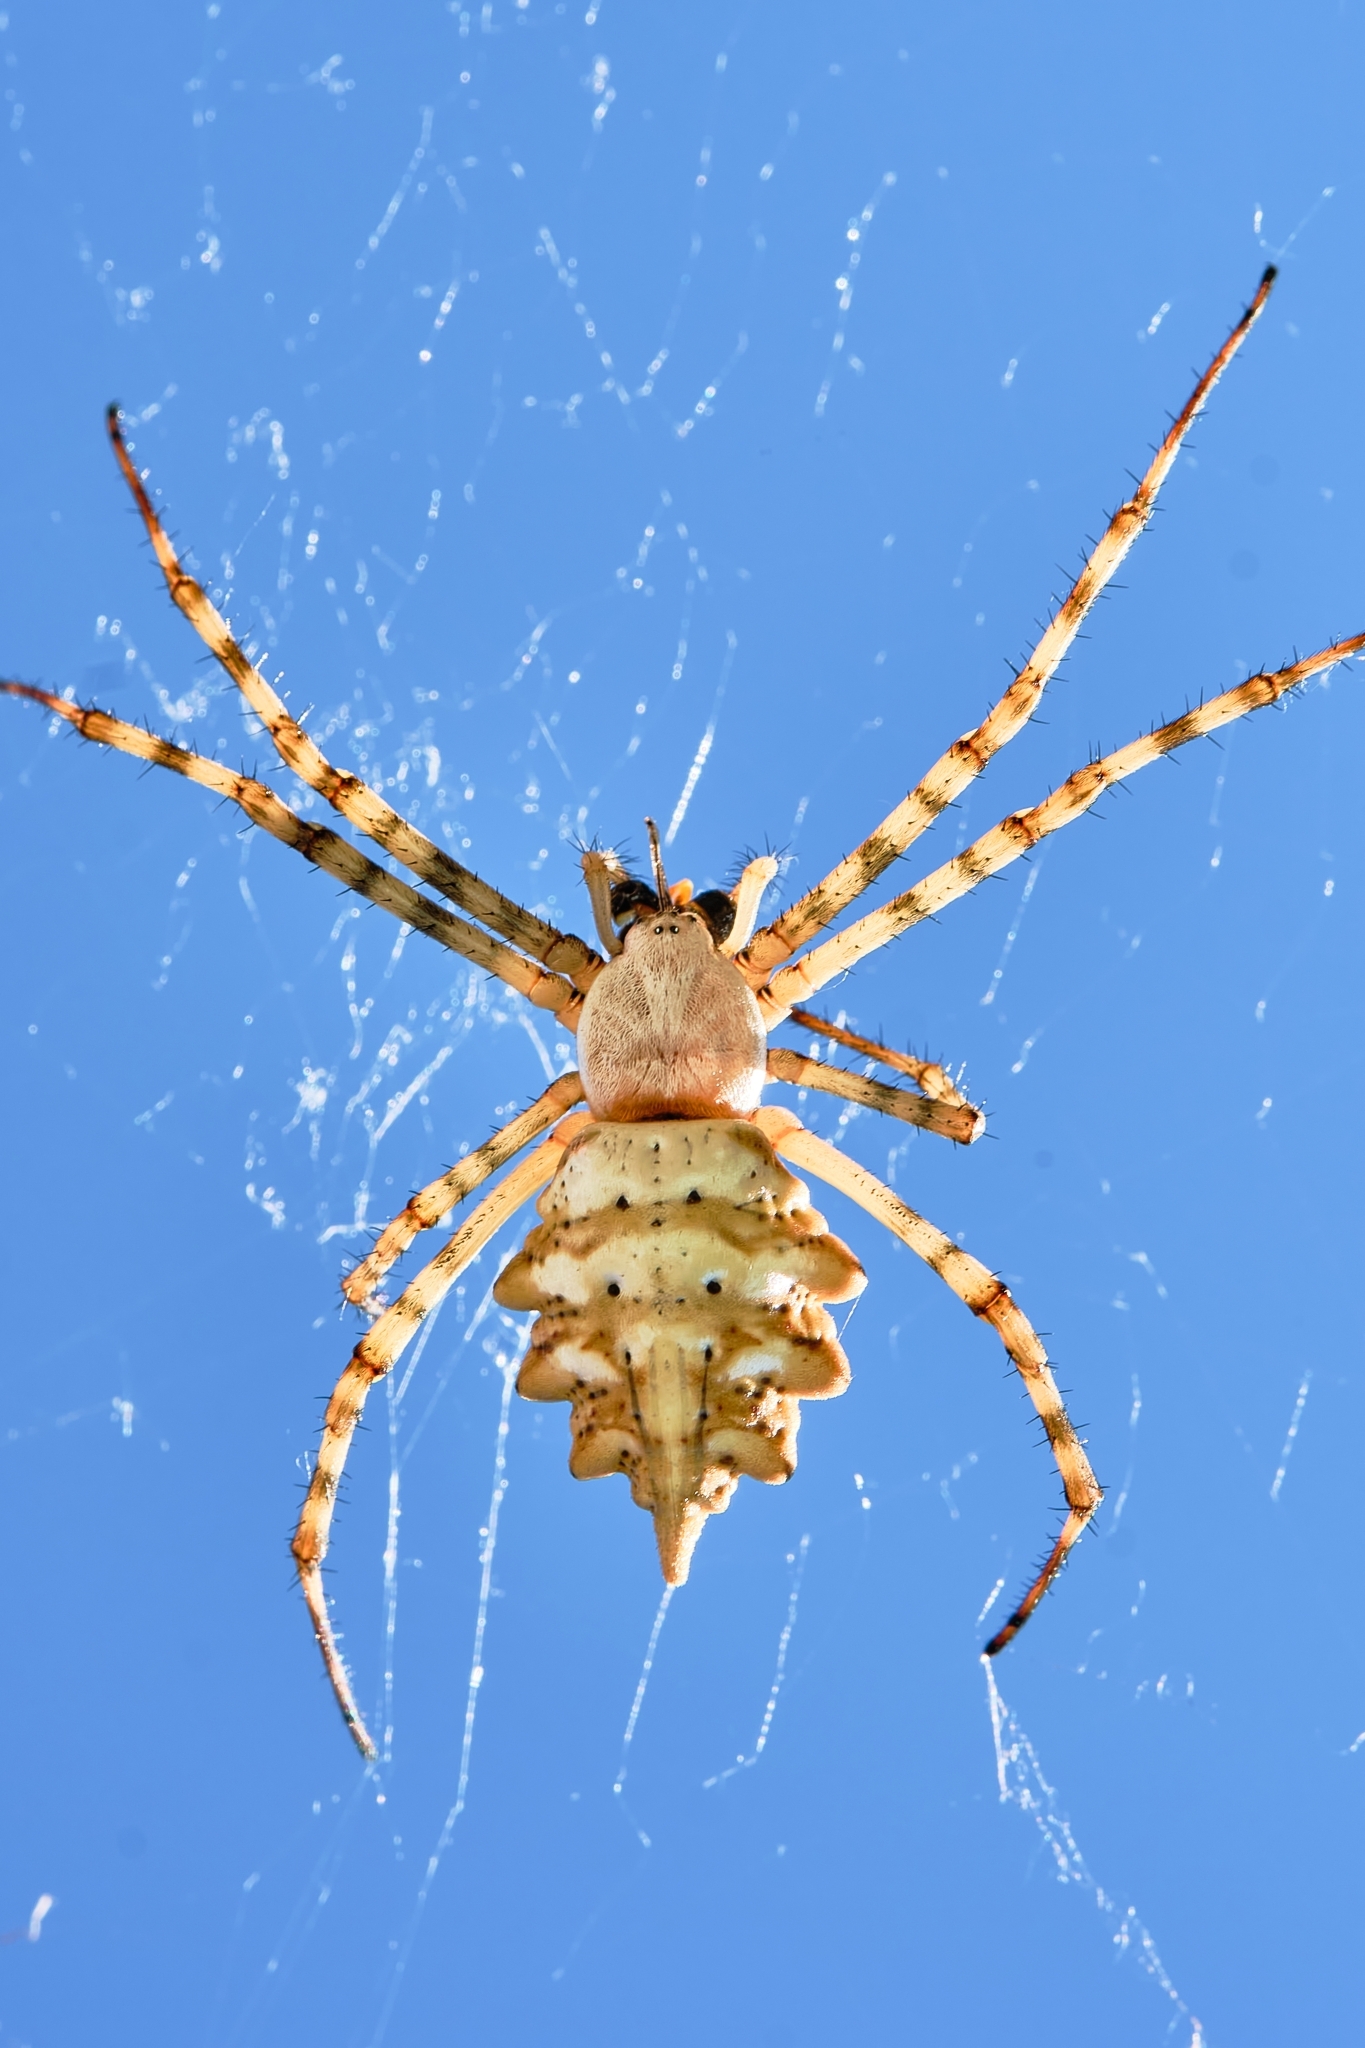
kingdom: Animalia
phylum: Arthropoda
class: Arachnida
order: Araneae
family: Araneidae
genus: Argiope
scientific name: Argiope lobata
